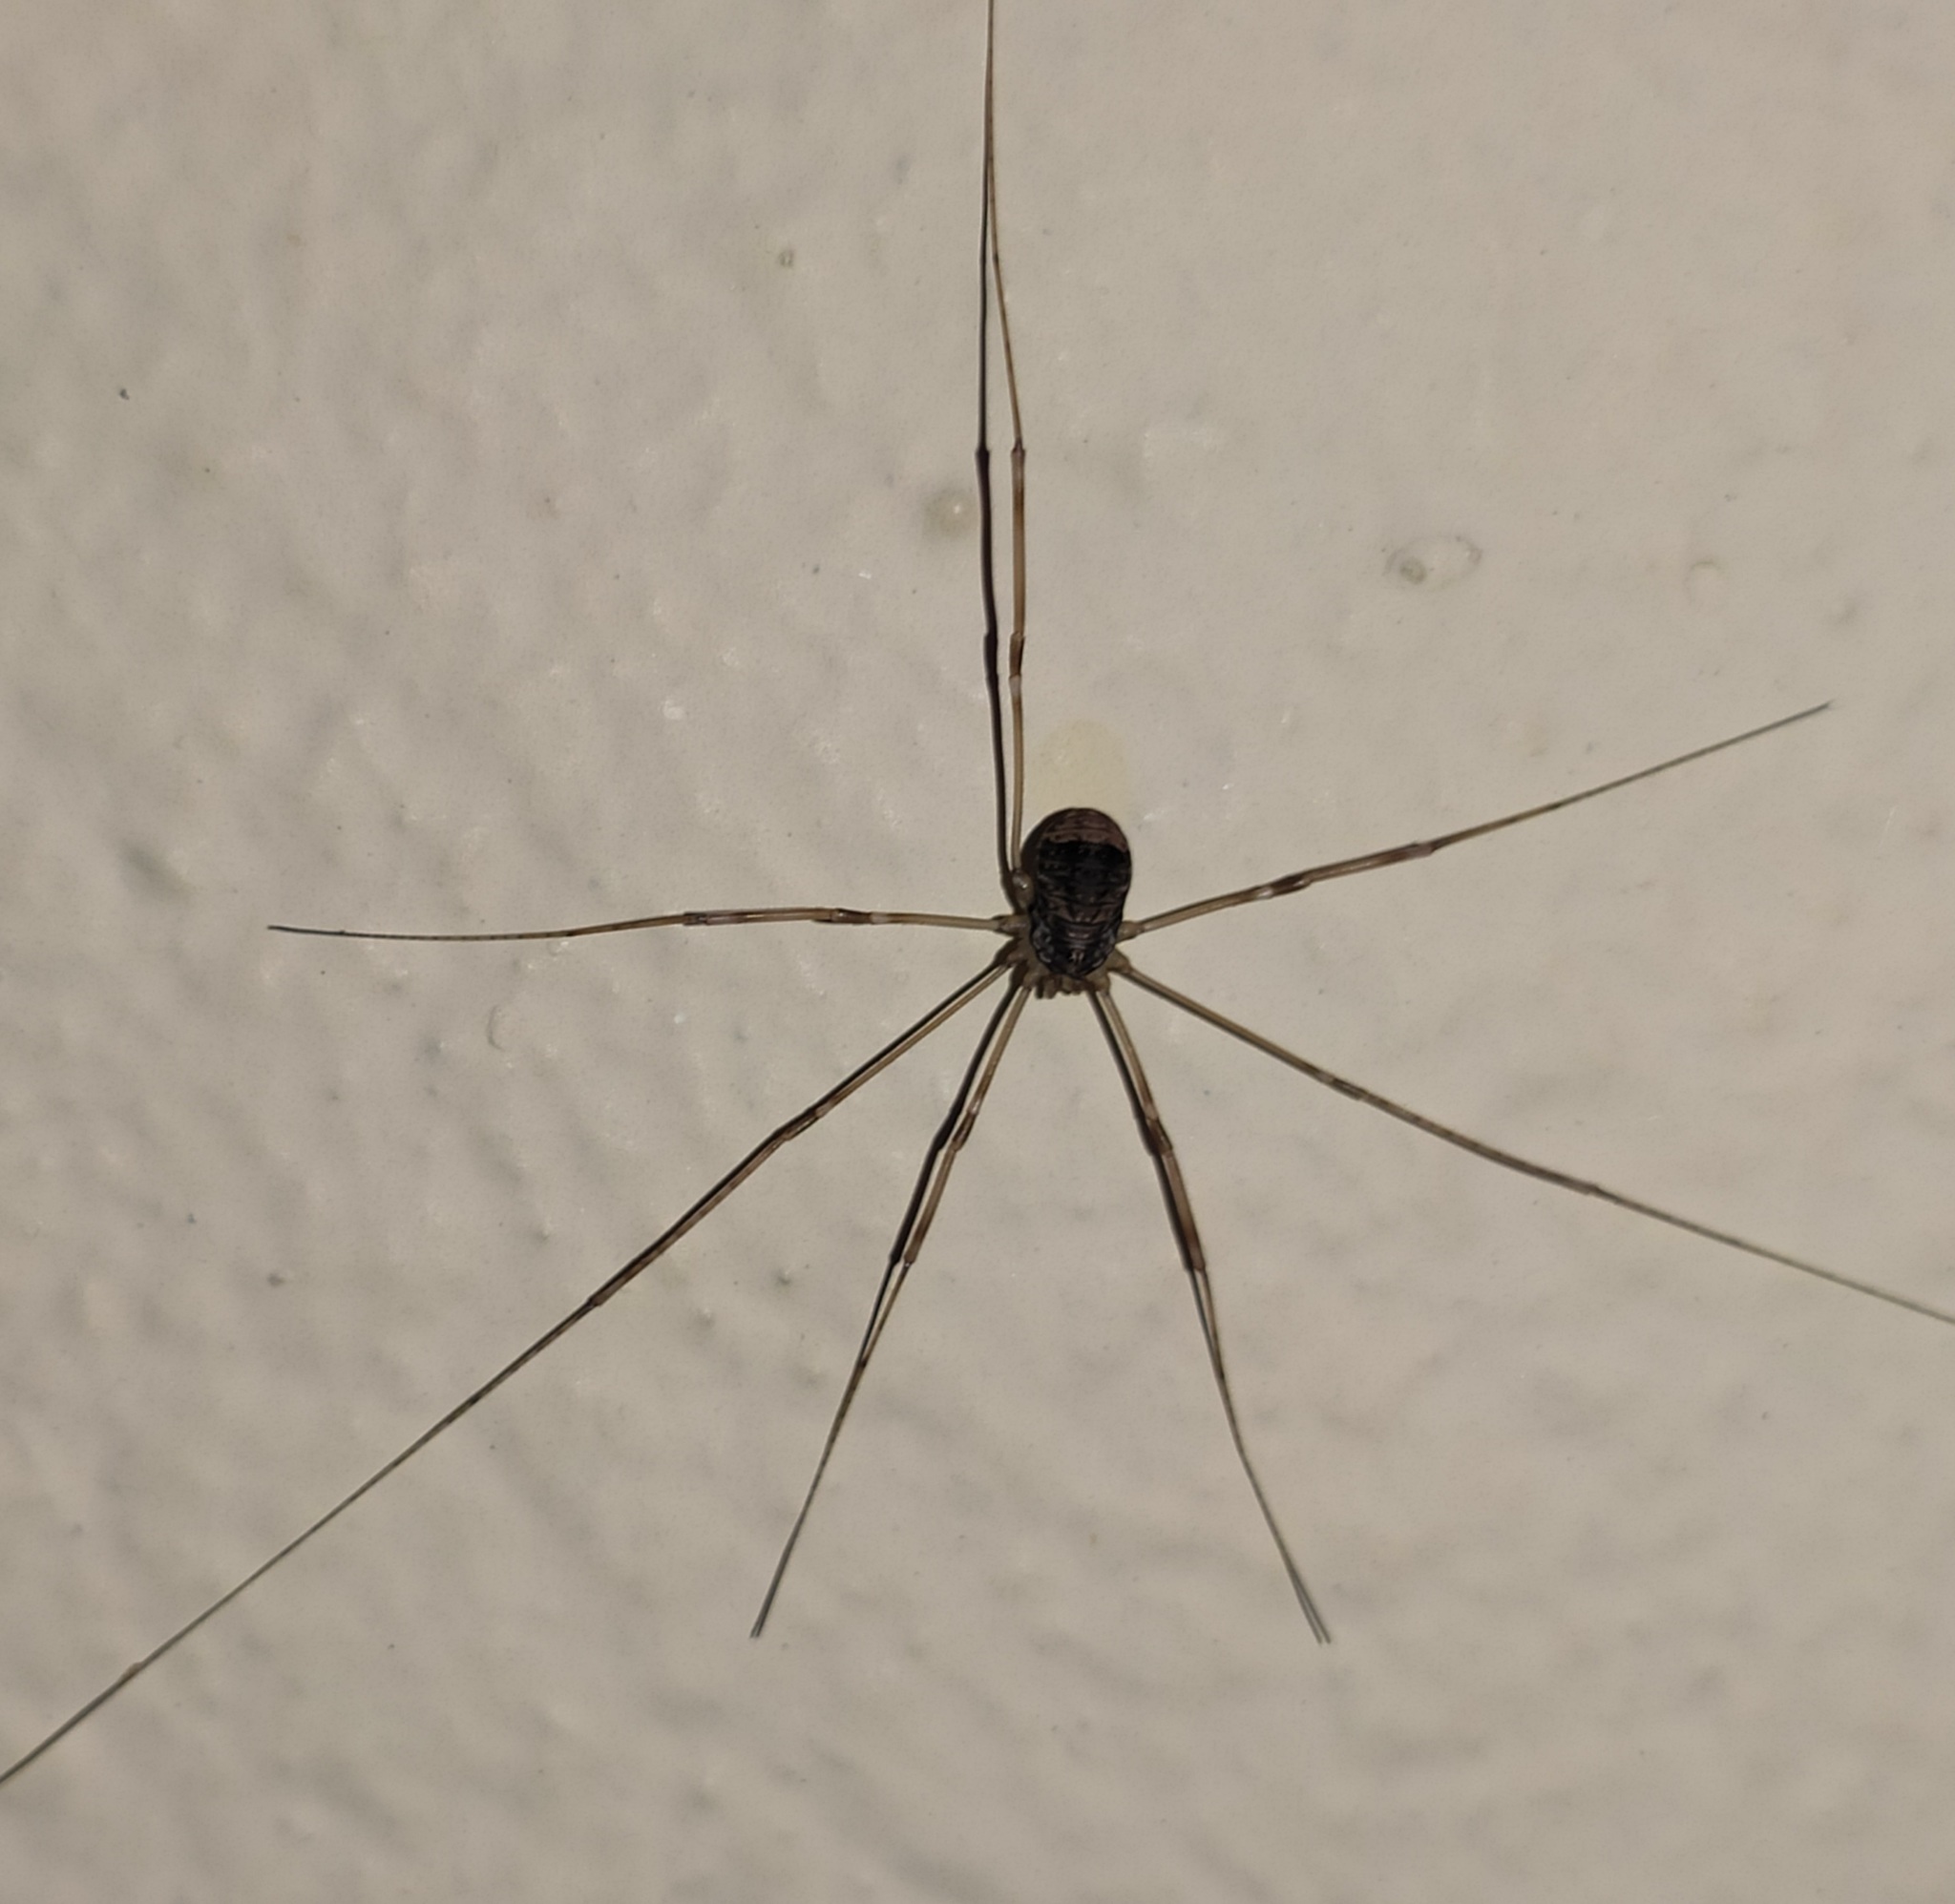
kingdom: Animalia
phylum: Arthropoda
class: Arachnida
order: Opiliones
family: Sclerosomatidae
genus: Leiobunum
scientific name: Leiobunum blackwalli
